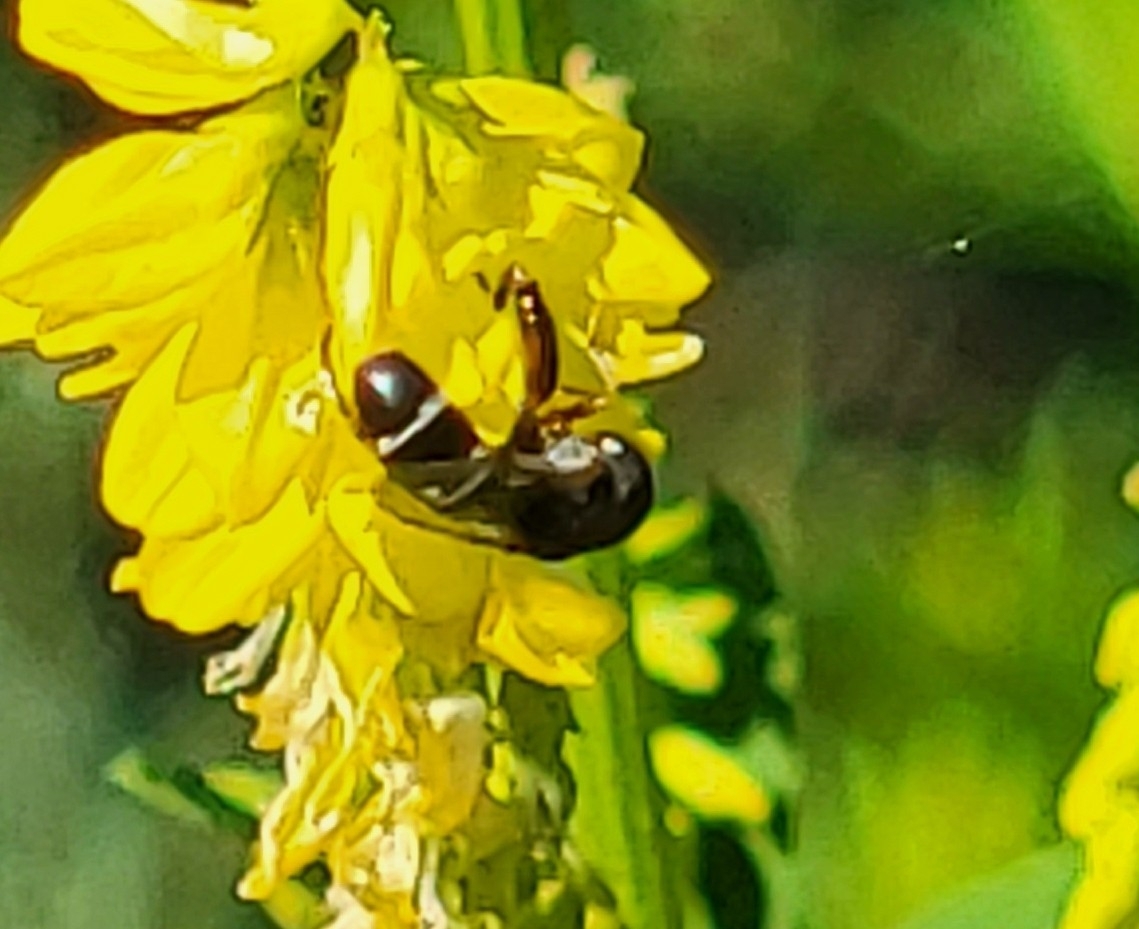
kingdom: Animalia
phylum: Arthropoda
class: Insecta
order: Diptera
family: Syrphidae
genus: Syritta
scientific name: Syritta pipiens
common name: Hover fly
